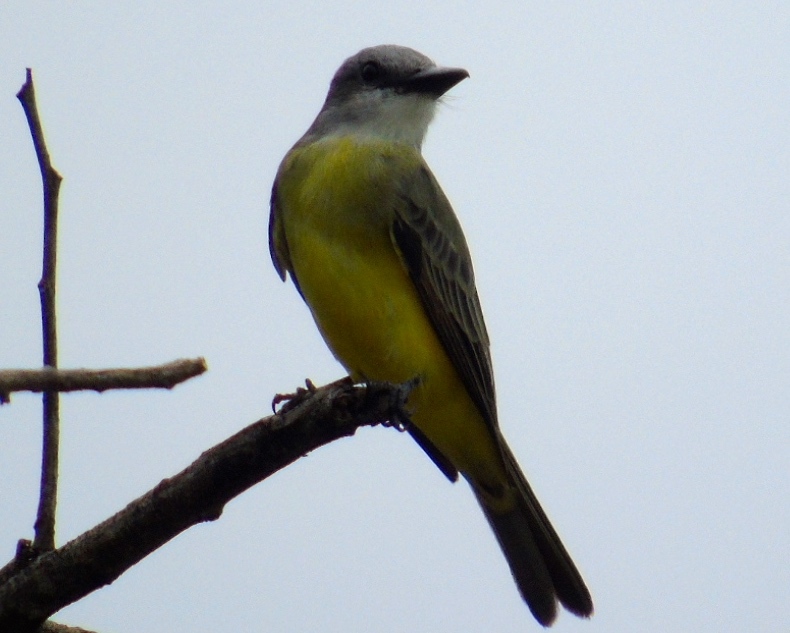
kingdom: Animalia
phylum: Chordata
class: Aves
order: Passeriformes
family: Tyrannidae
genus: Tyrannus
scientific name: Tyrannus melancholicus
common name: Tropical kingbird
